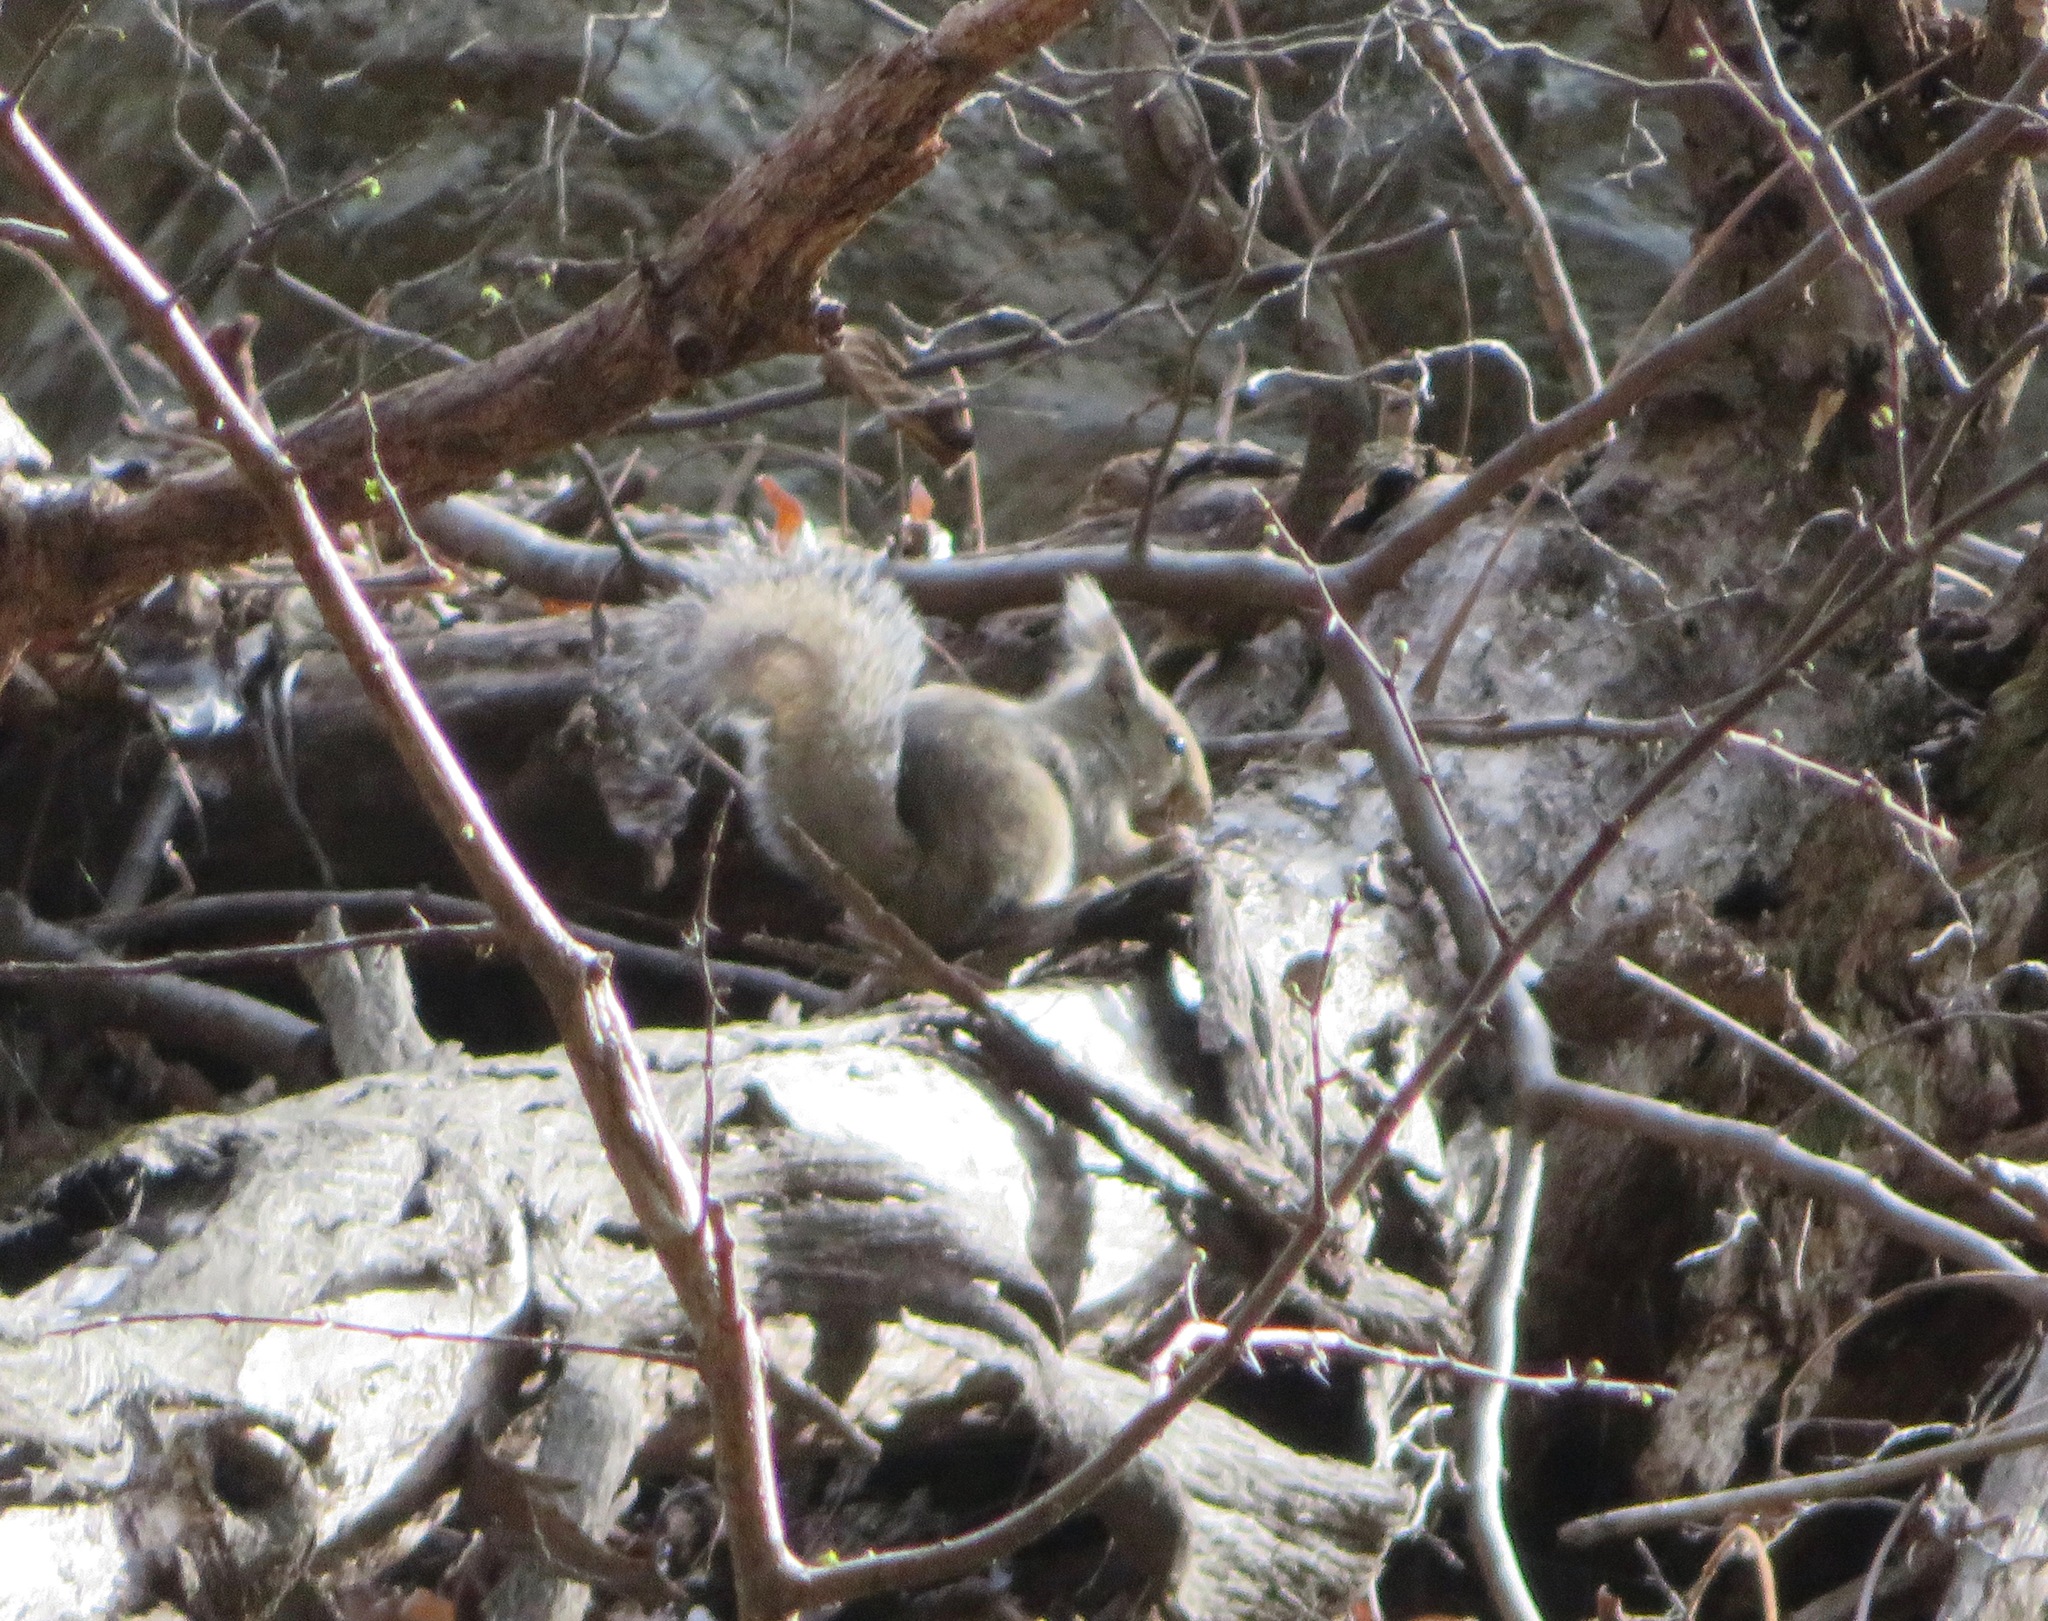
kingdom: Animalia
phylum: Chordata
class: Mammalia
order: Rodentia
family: Sciuridae
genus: Sciurus
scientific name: Sciurus lis
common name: Japanese squirrel
